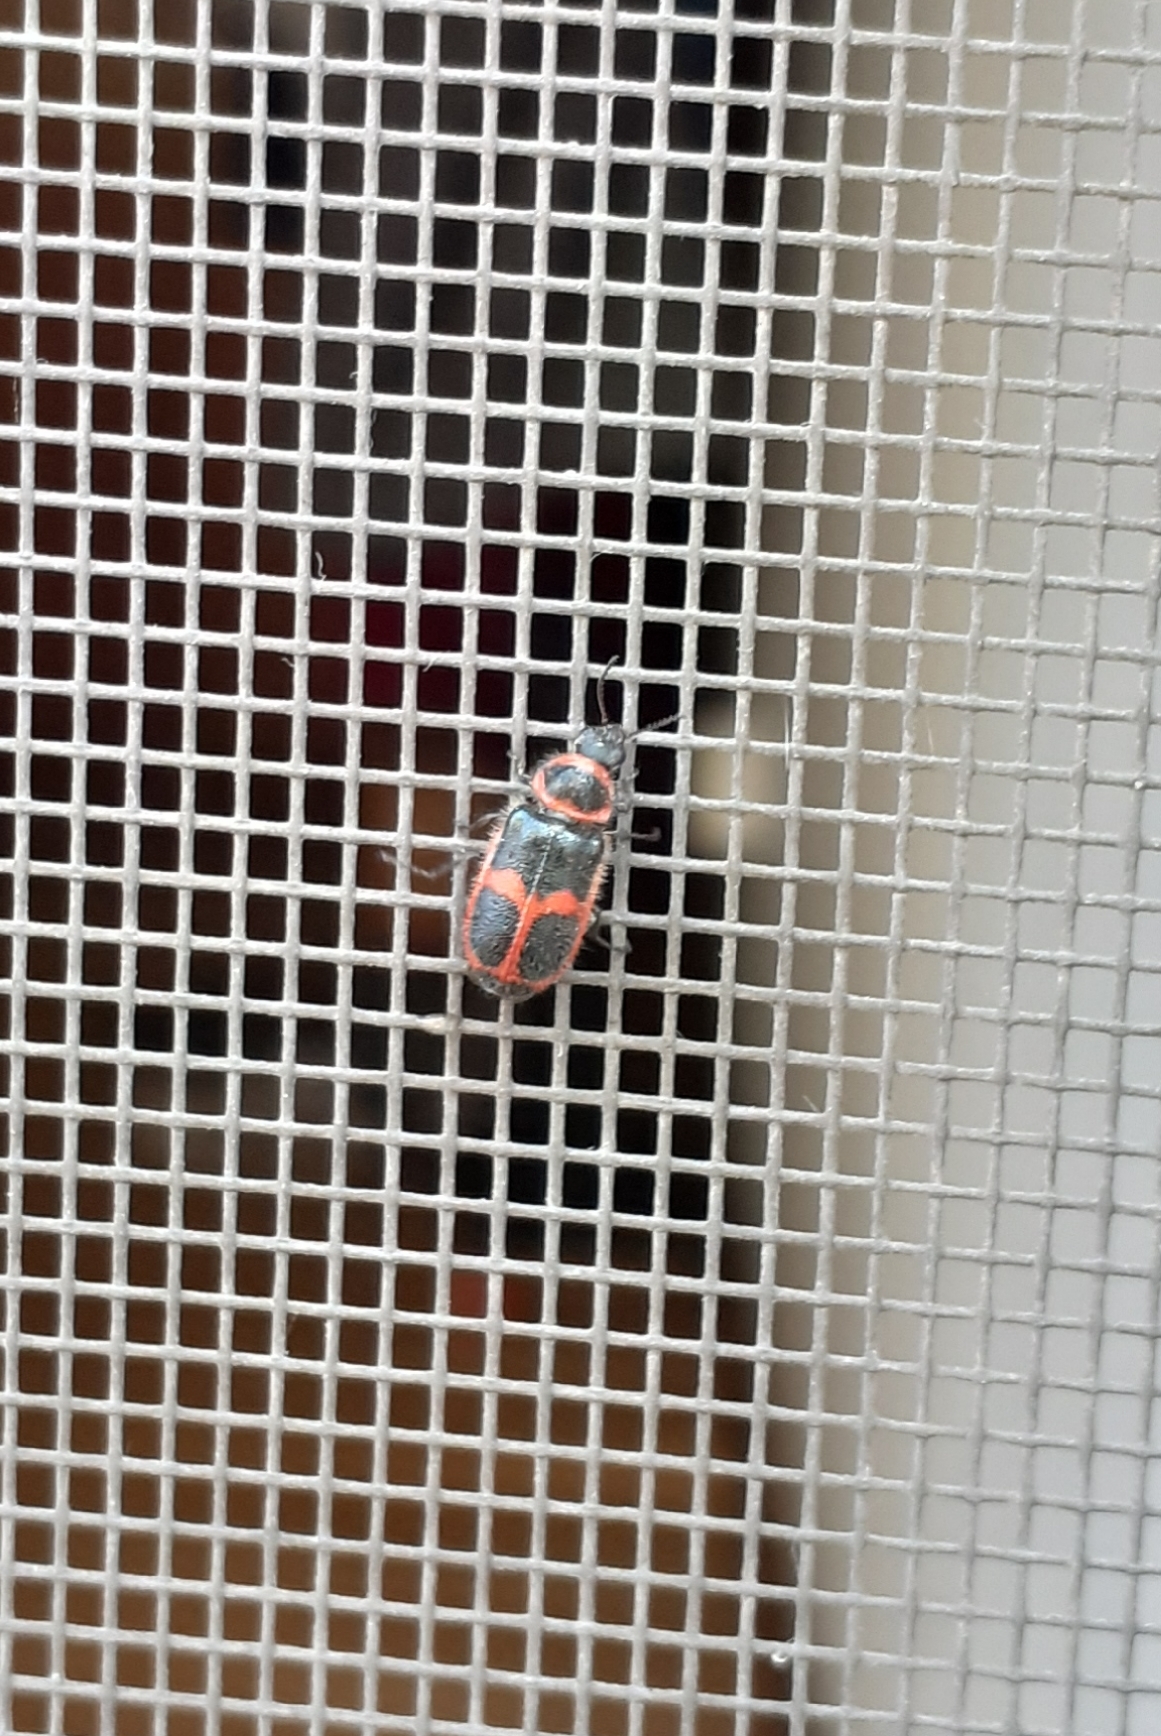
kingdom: Animalia
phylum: Arthropoda
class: Insecta
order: Coleoptera
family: Melyridae
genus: Astylus
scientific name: Astylus
